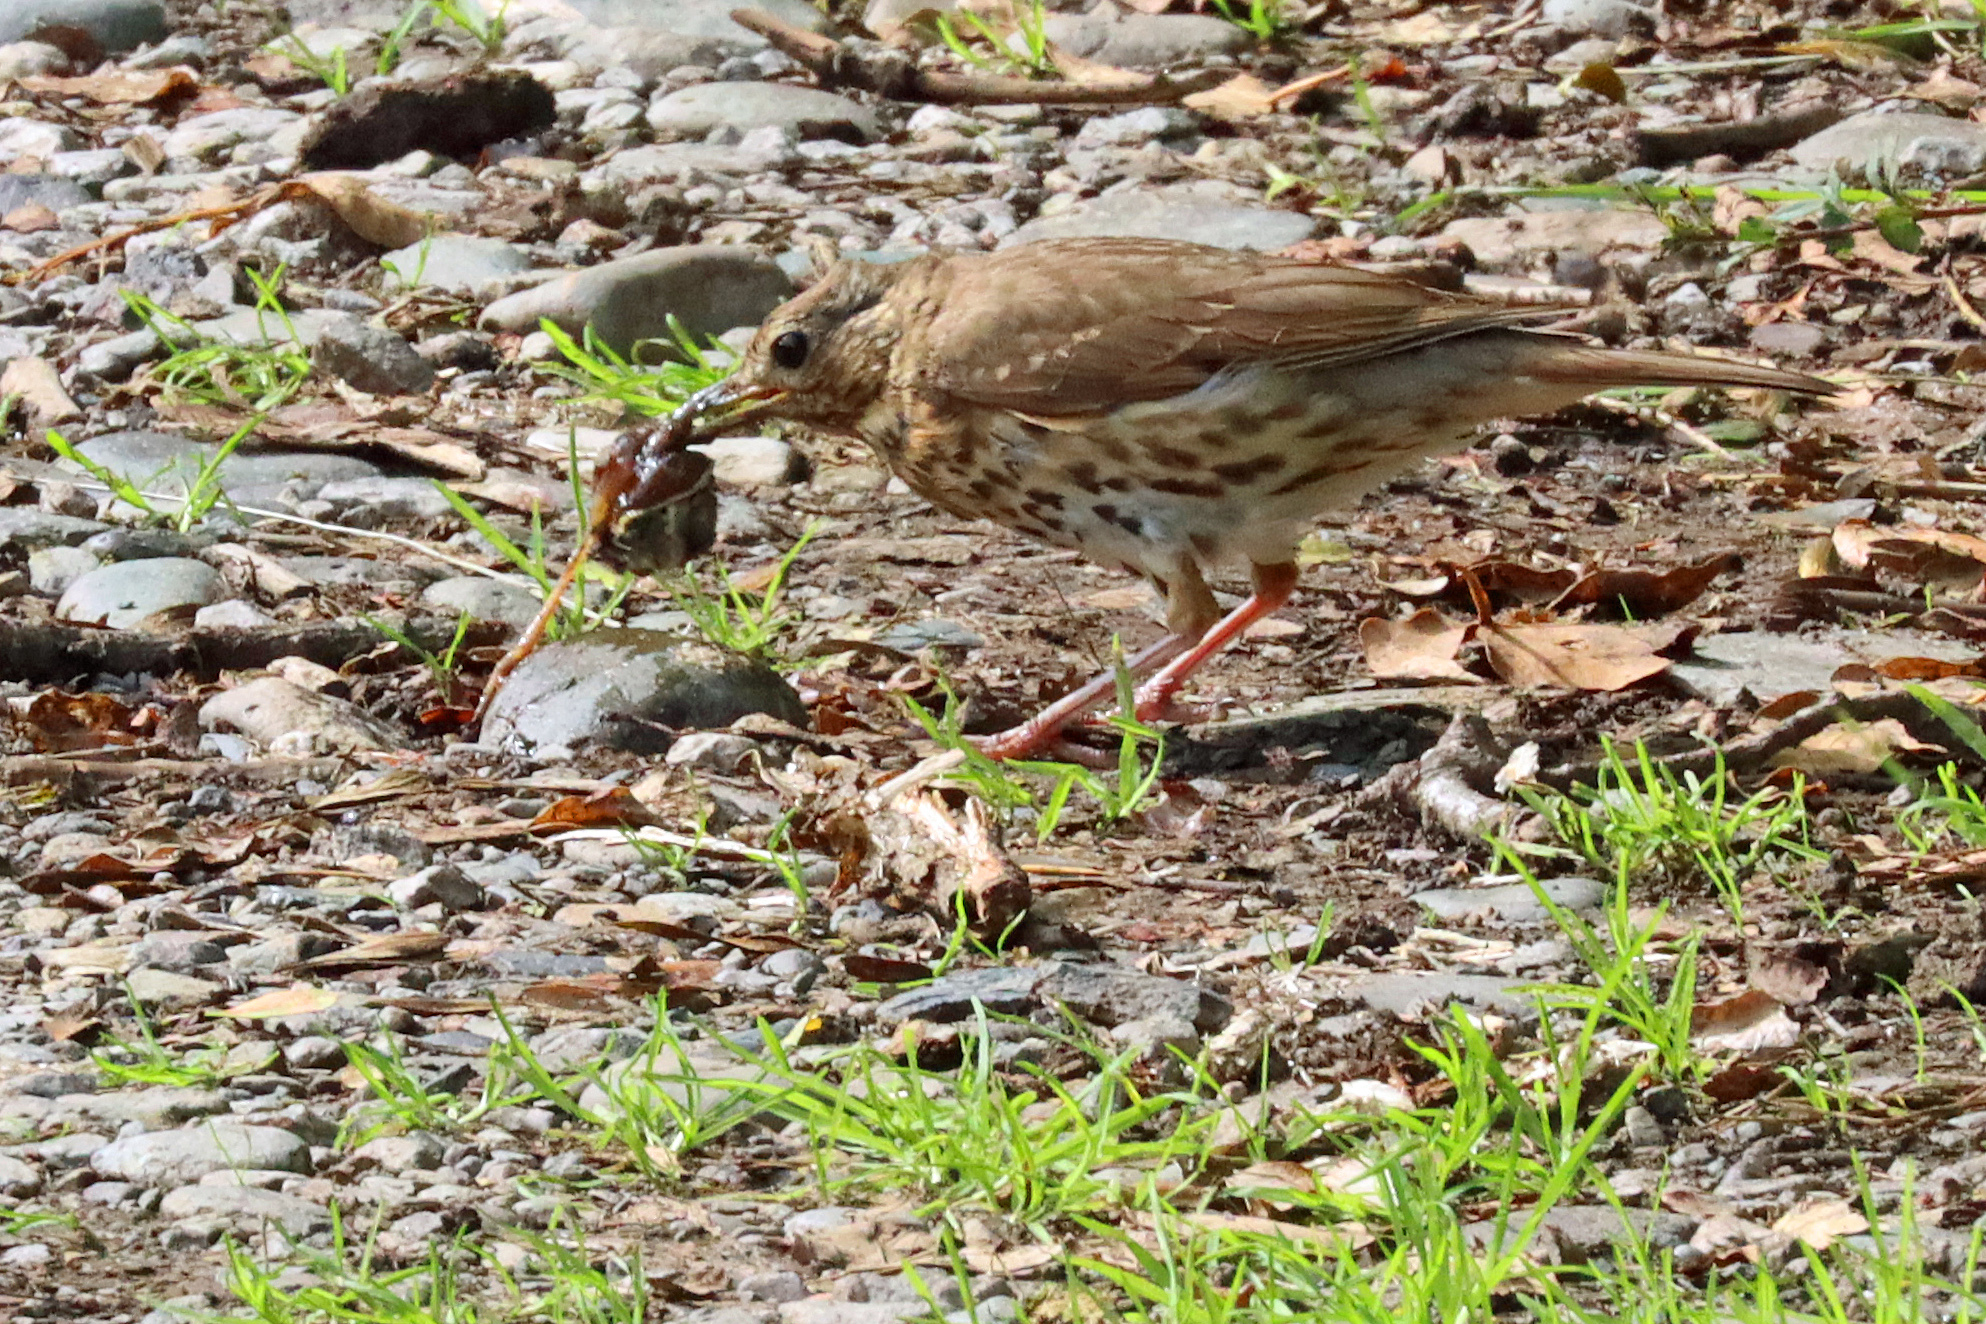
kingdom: Animalia
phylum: Chordata
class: Aves
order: Passeriformes
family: Turdidae
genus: Turdus
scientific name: Turdus philomelos
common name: Song thrush
